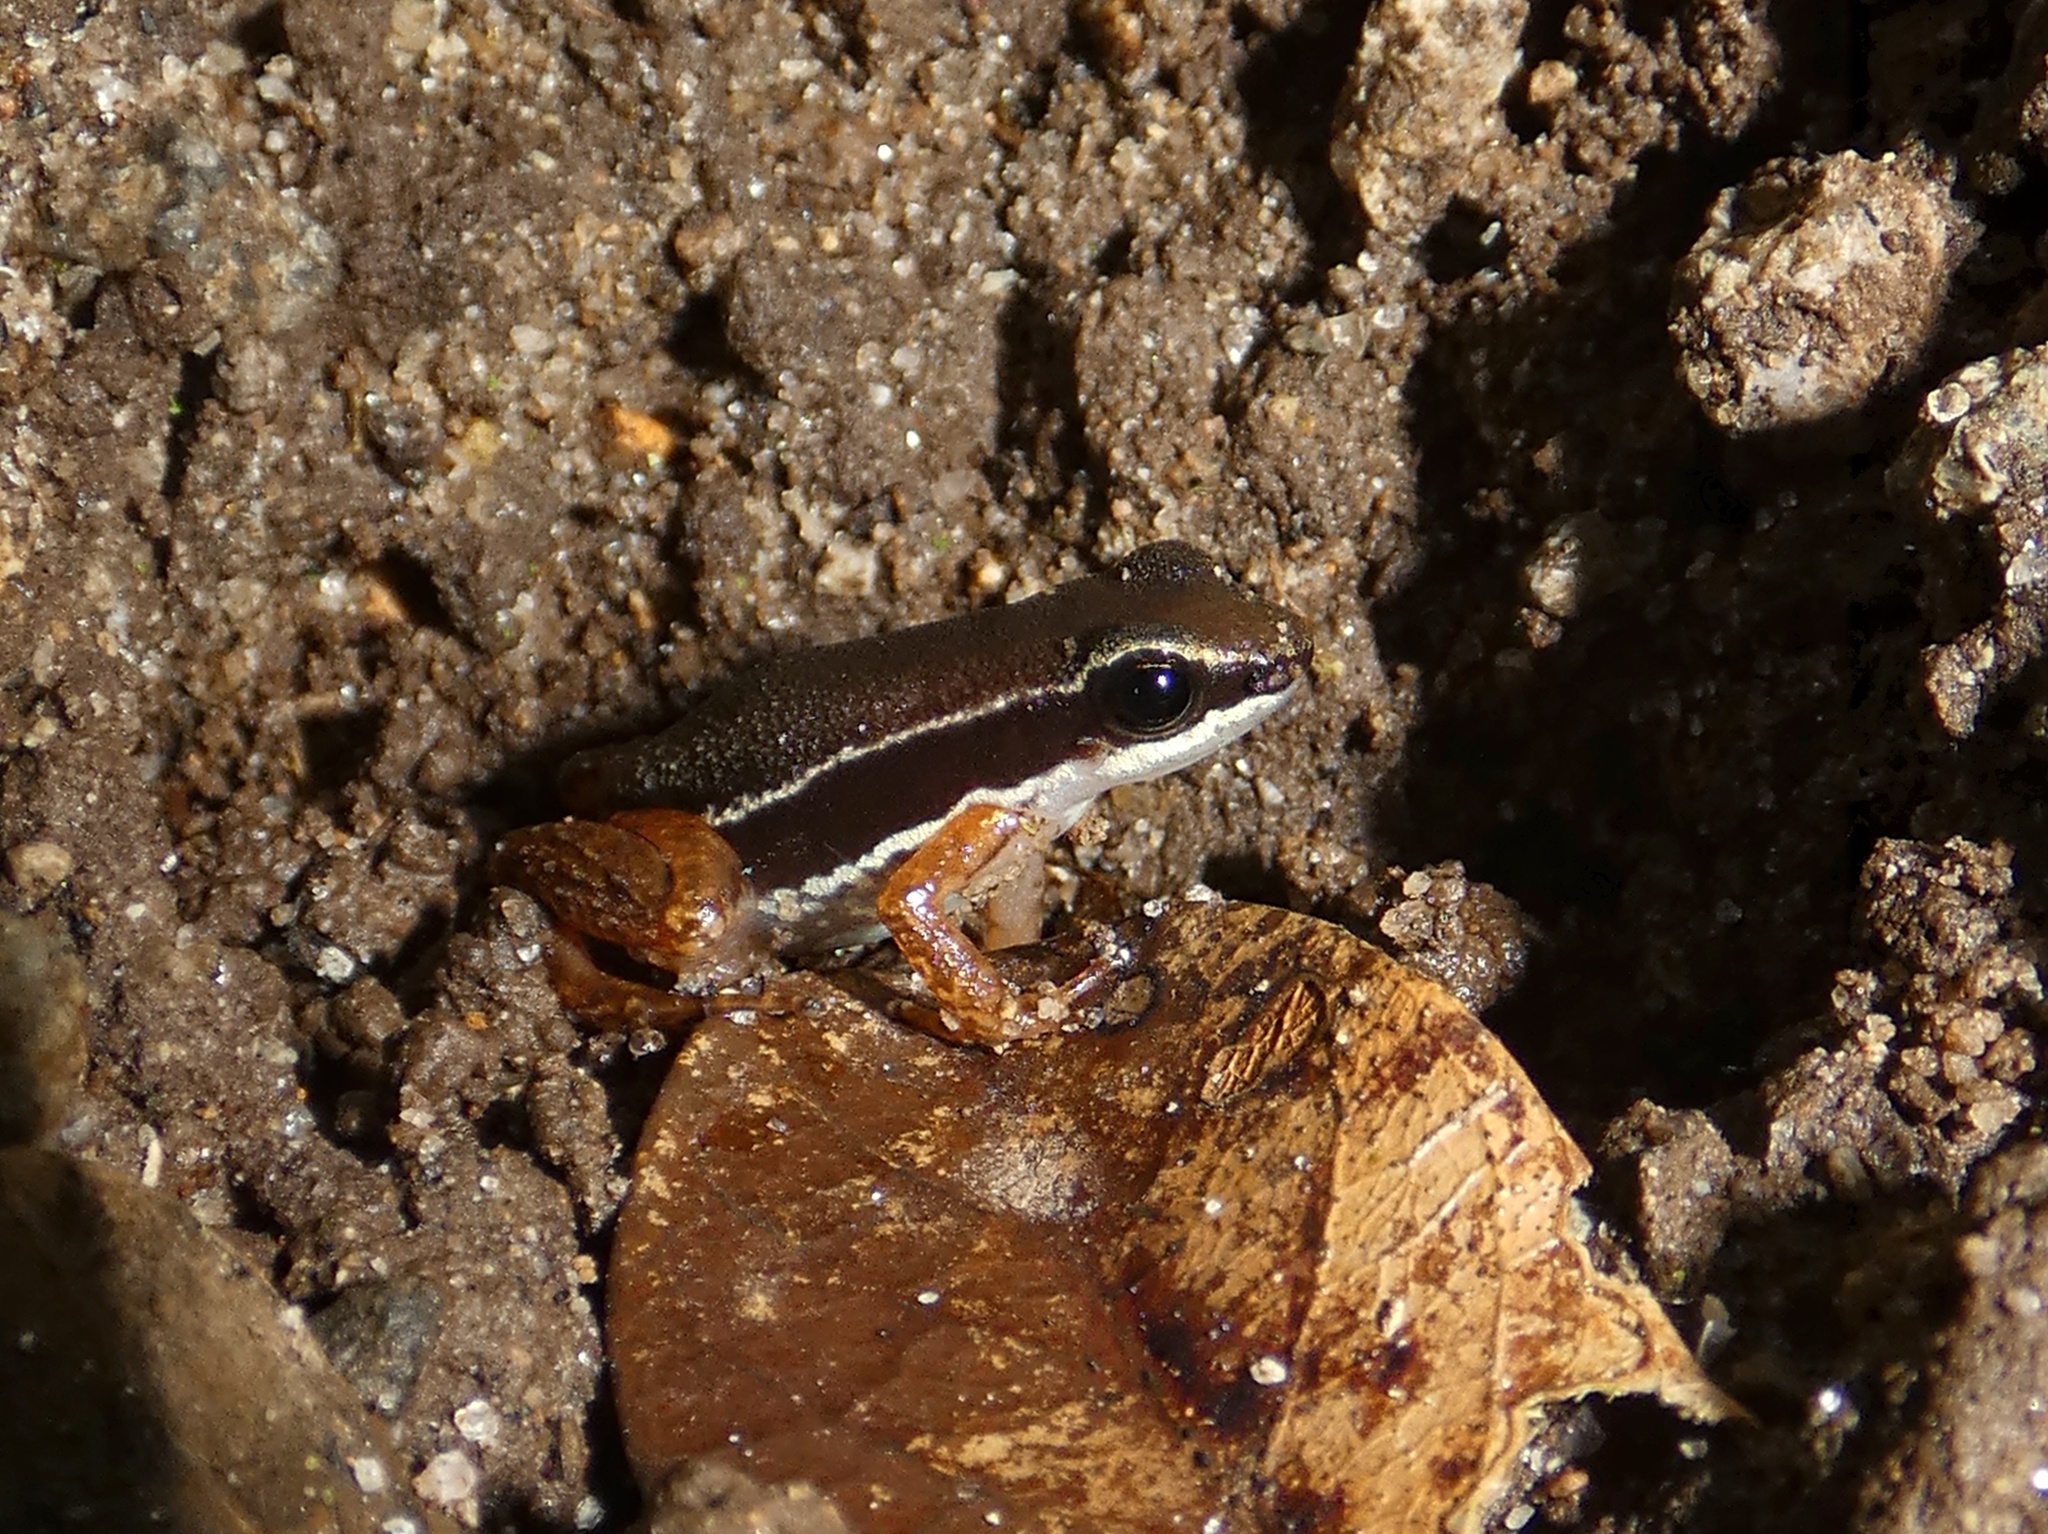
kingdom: Animalia
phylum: Chordata
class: Amphibia
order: Anura
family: Dendrobatidae
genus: Silverstoneia
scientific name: Silverstoneia flotator
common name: Rainforest rocket frog
